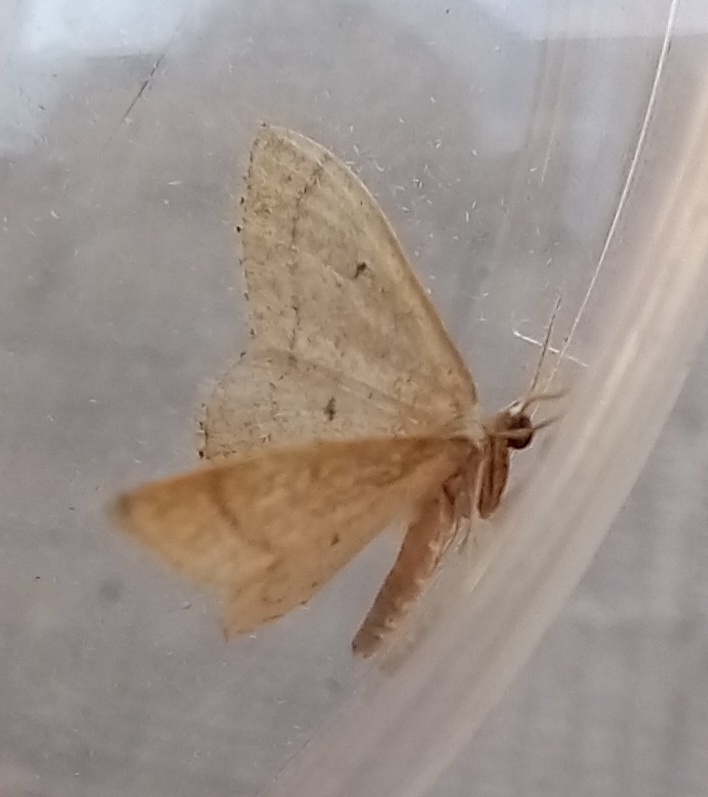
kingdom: Animalia
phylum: Arthropoda
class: Insecta
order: Lepidoptera
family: Geometridae
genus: Idaea
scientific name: Idaea consanguiberica
